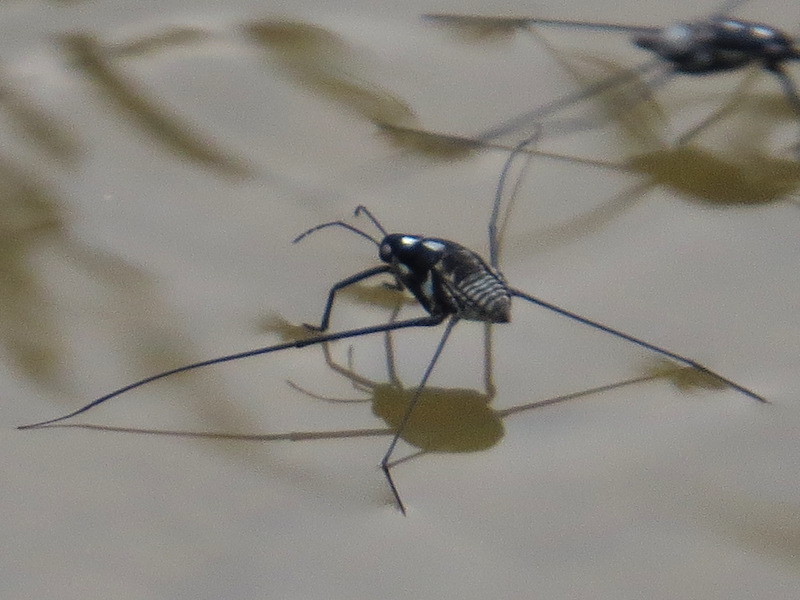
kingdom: Animalia
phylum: Arthropoda
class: Insecta
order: Hemiptera
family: Gerridae
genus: Metrobates
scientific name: Metrobates hesperius
